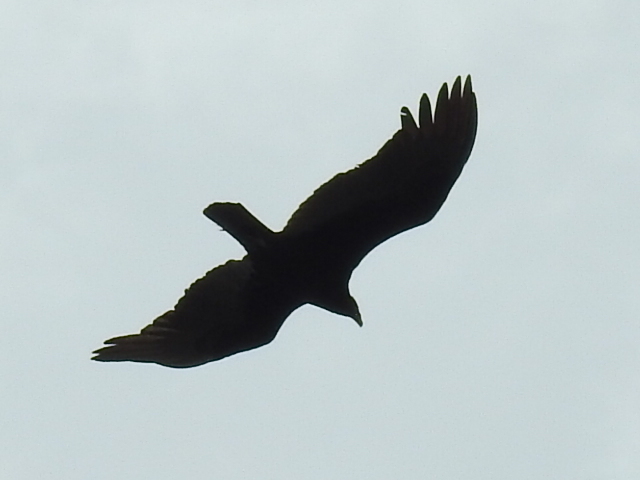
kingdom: Animalia
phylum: Chordata
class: Aves
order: Accipitriformes
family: Cathartidae
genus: Cathartes
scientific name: Cathartes aura
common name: Turkey vulture
